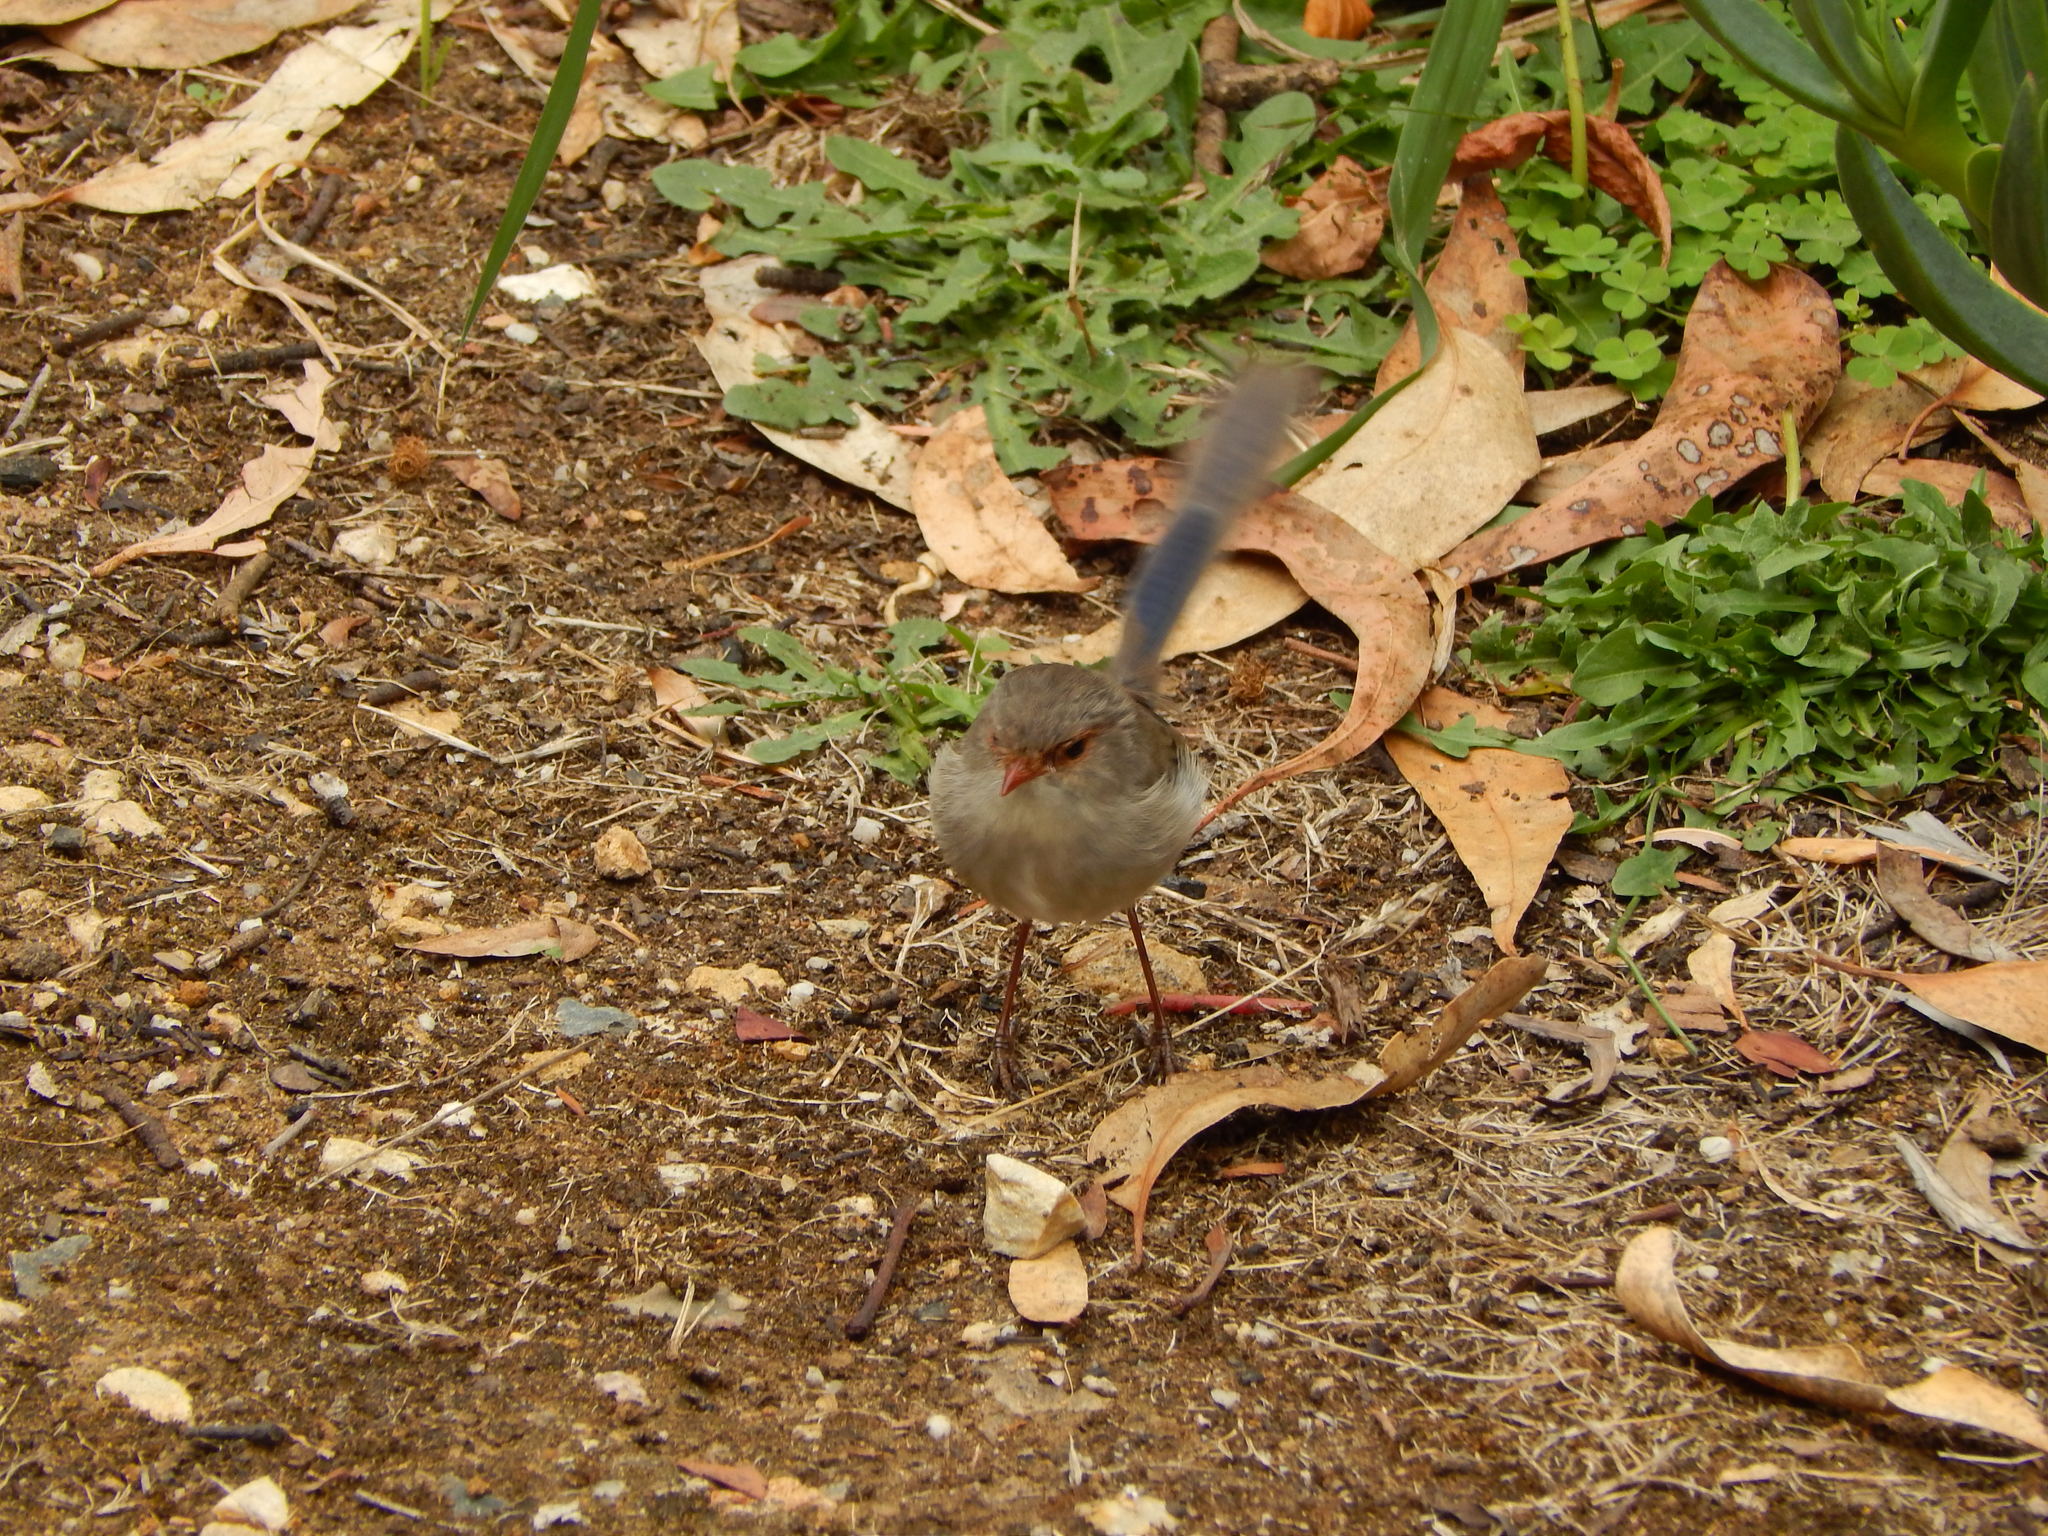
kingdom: Animalia
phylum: Chordata
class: Aves
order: Passeriformes
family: Maluridae
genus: Malurus
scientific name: Malurus cyaneus
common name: Superb fairywren
